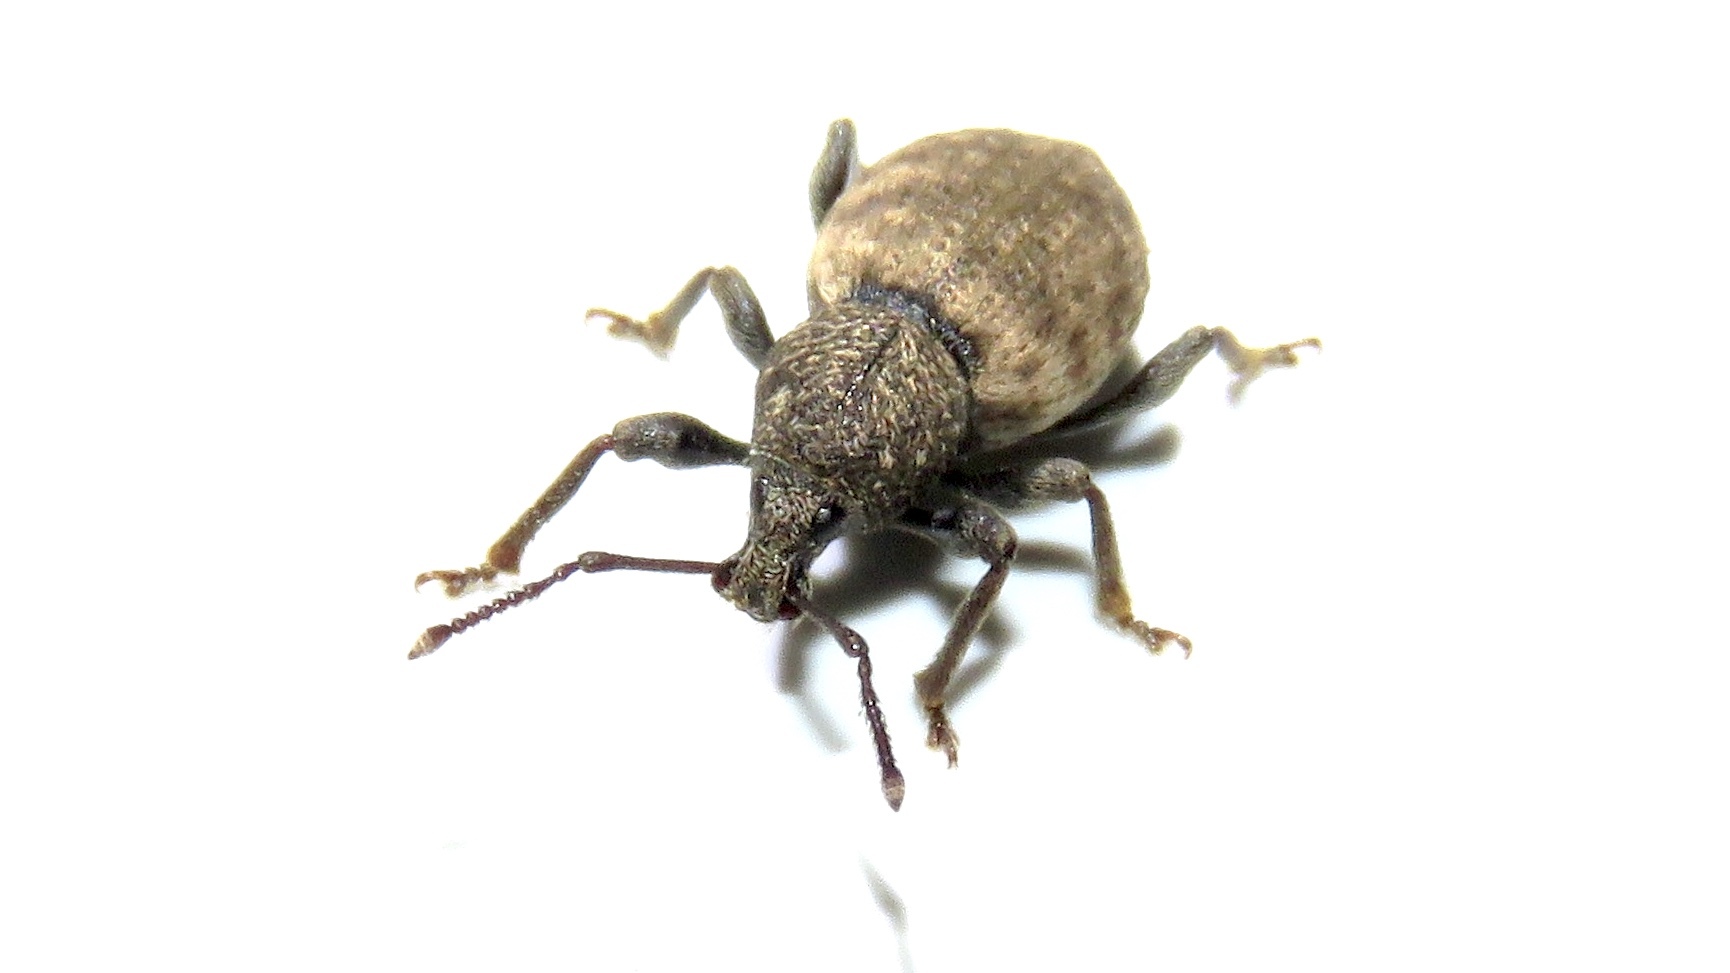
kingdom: Animalia
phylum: Arthropoda
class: Insecta
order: Coleoptera
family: Curculionidae
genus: Otiorhynchus
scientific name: Otiorhynchus raucus
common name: Weevil
